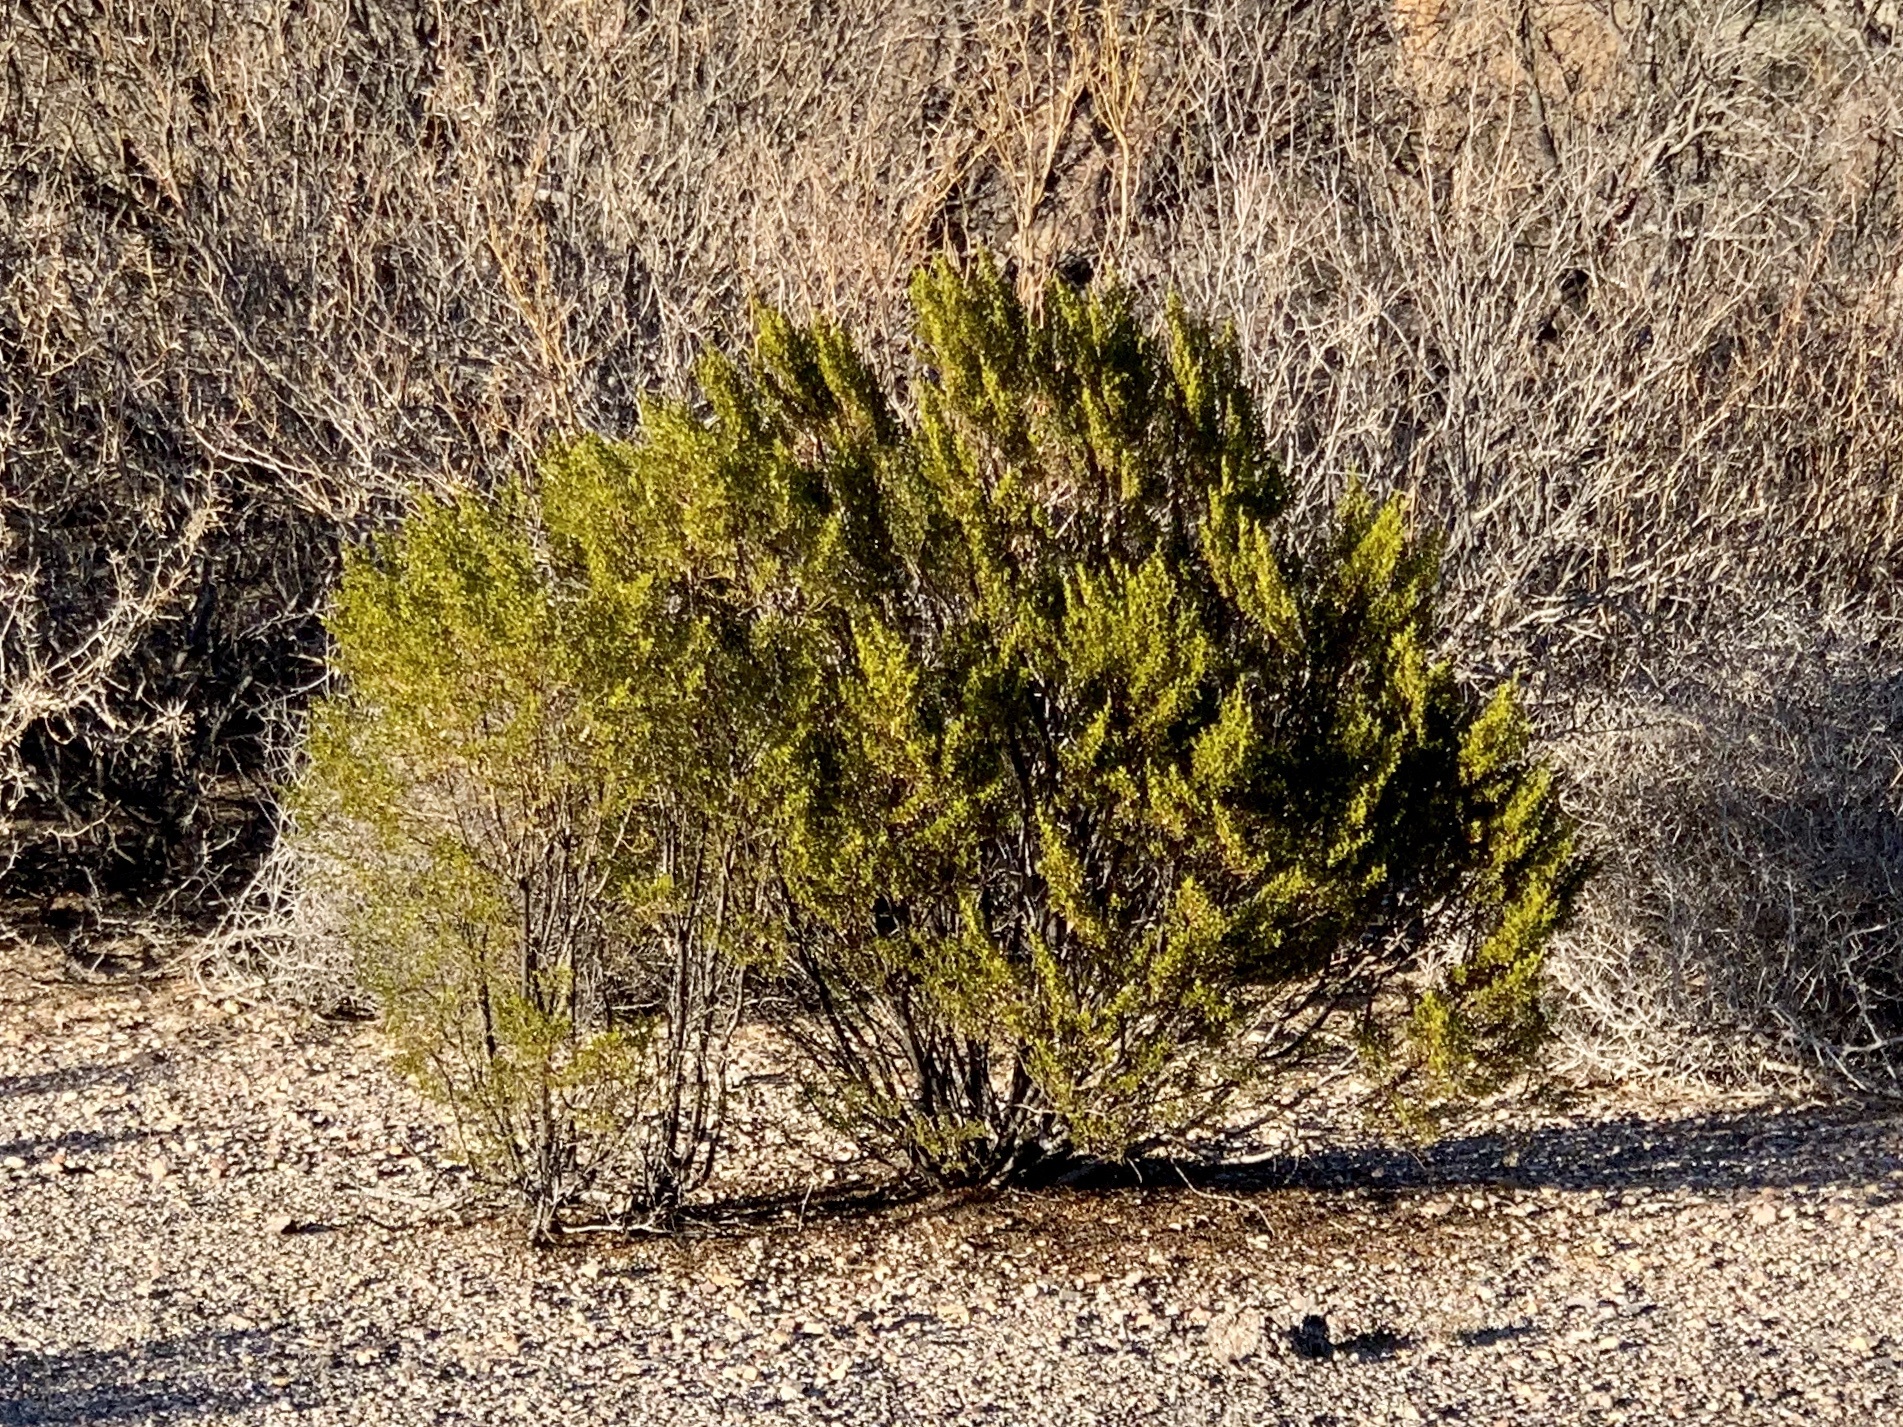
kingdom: Plantae
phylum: Tracheophyta
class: Magnoliopsida
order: Zygophyllales
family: Zygophyllaceae
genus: Larrea
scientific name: Larrea tridentata
